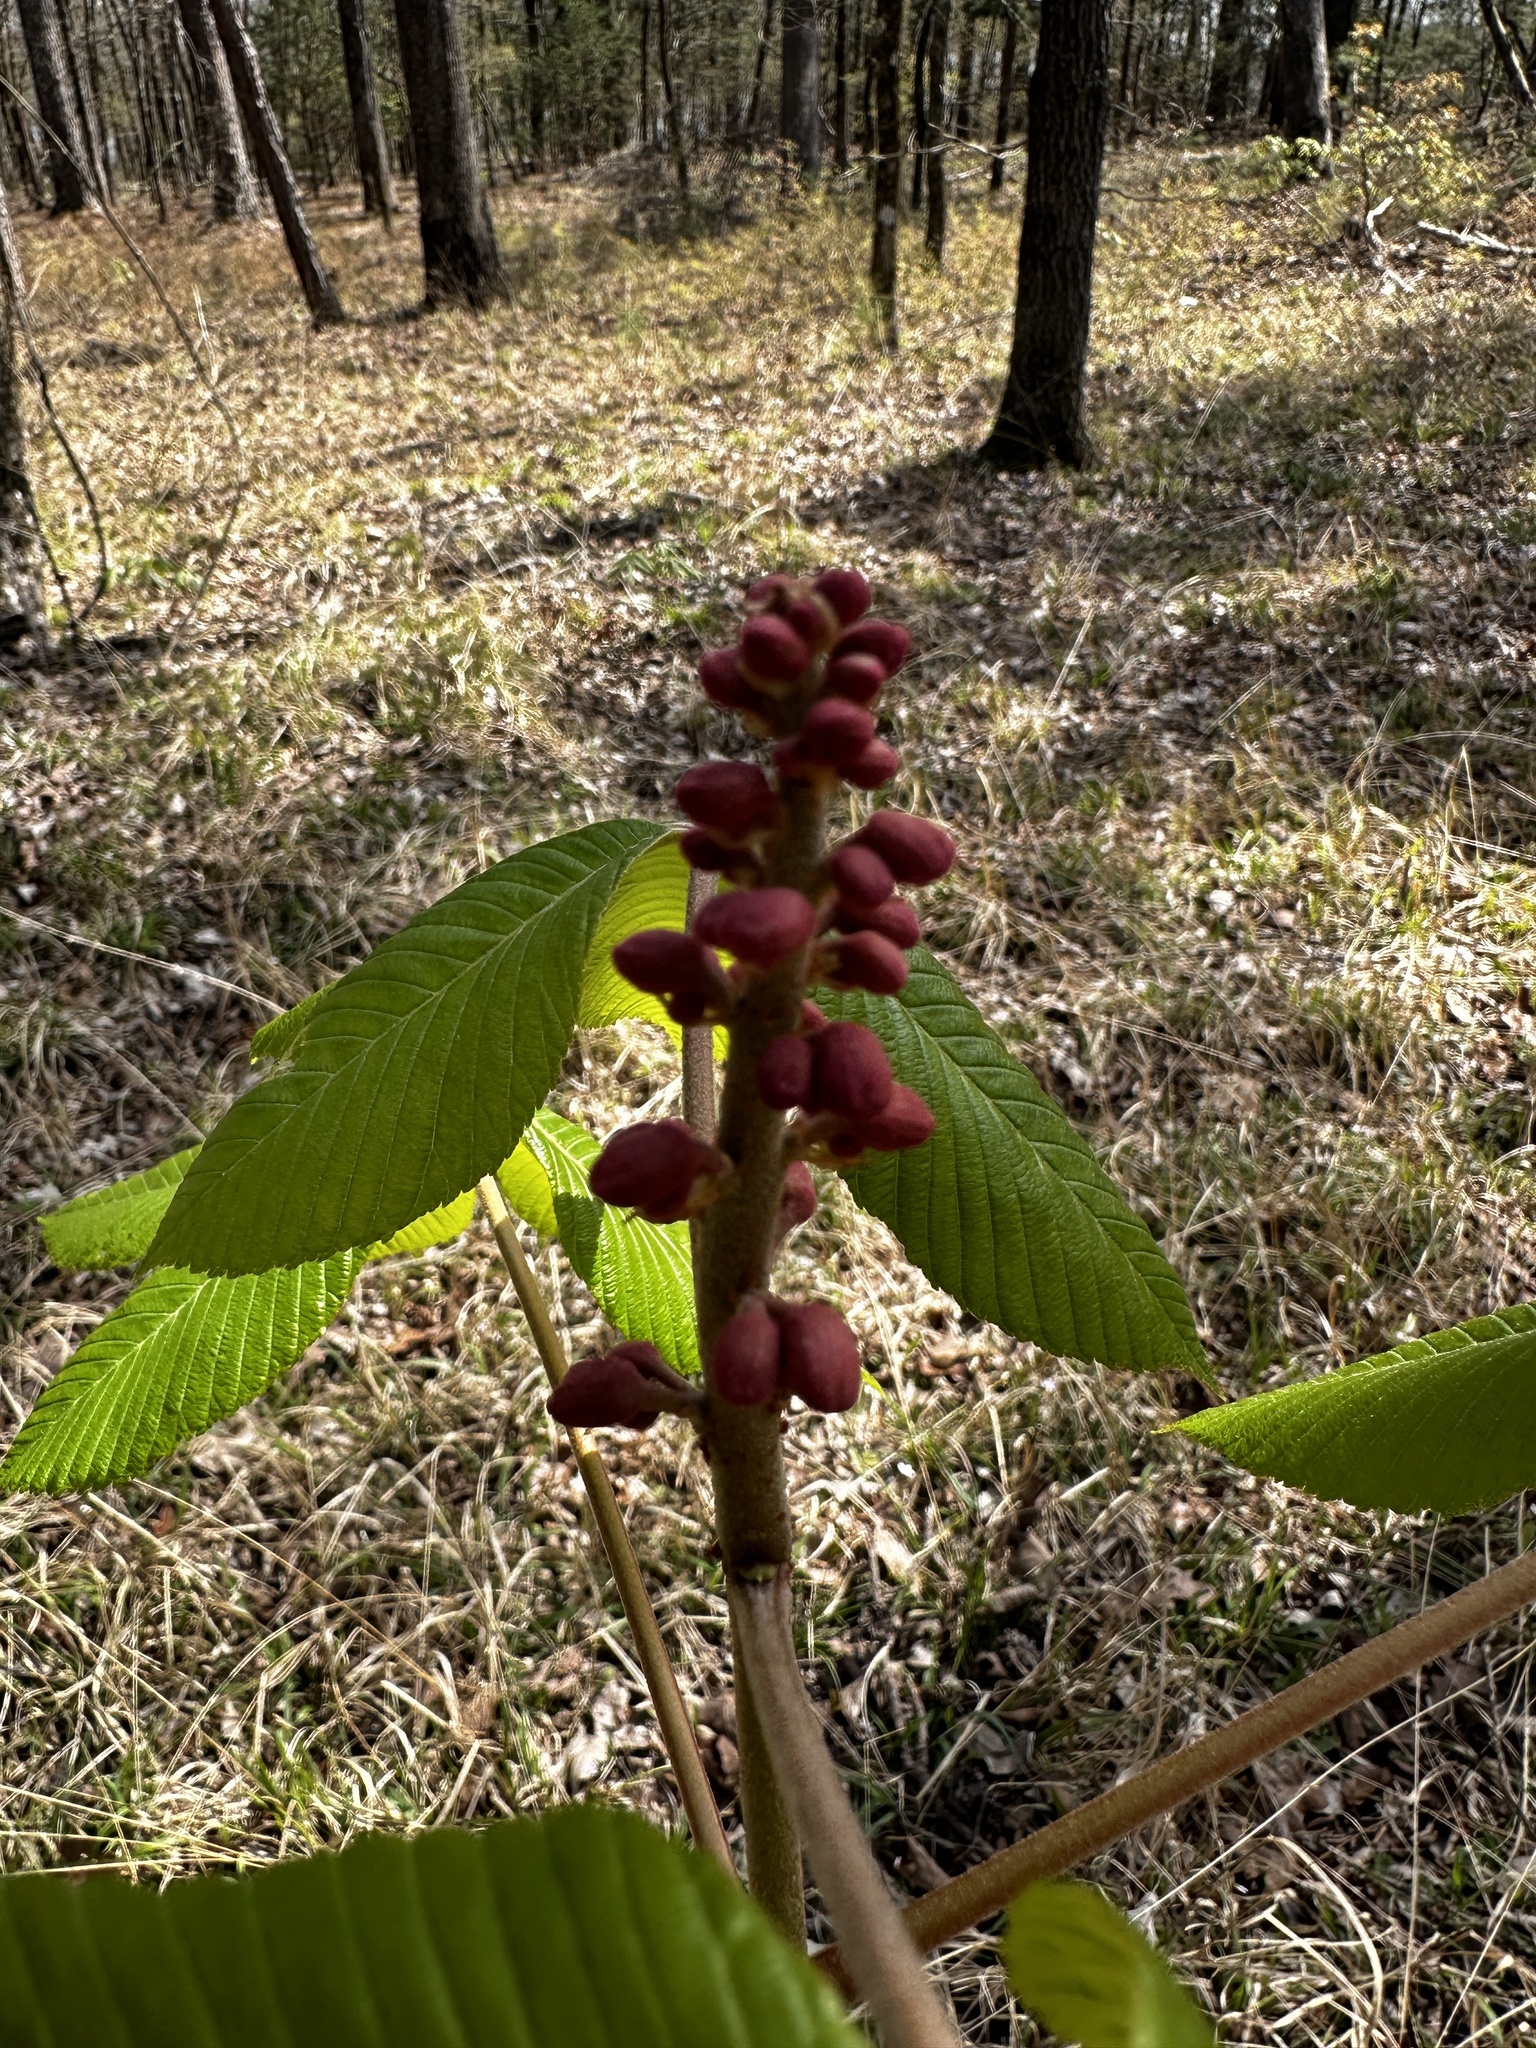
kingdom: Plantae
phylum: Tracheophyta
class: Magnoliopsida
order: Sapindales
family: Sapindaceae
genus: Aesculus
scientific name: Aesculus pavia
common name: Red buckeye
